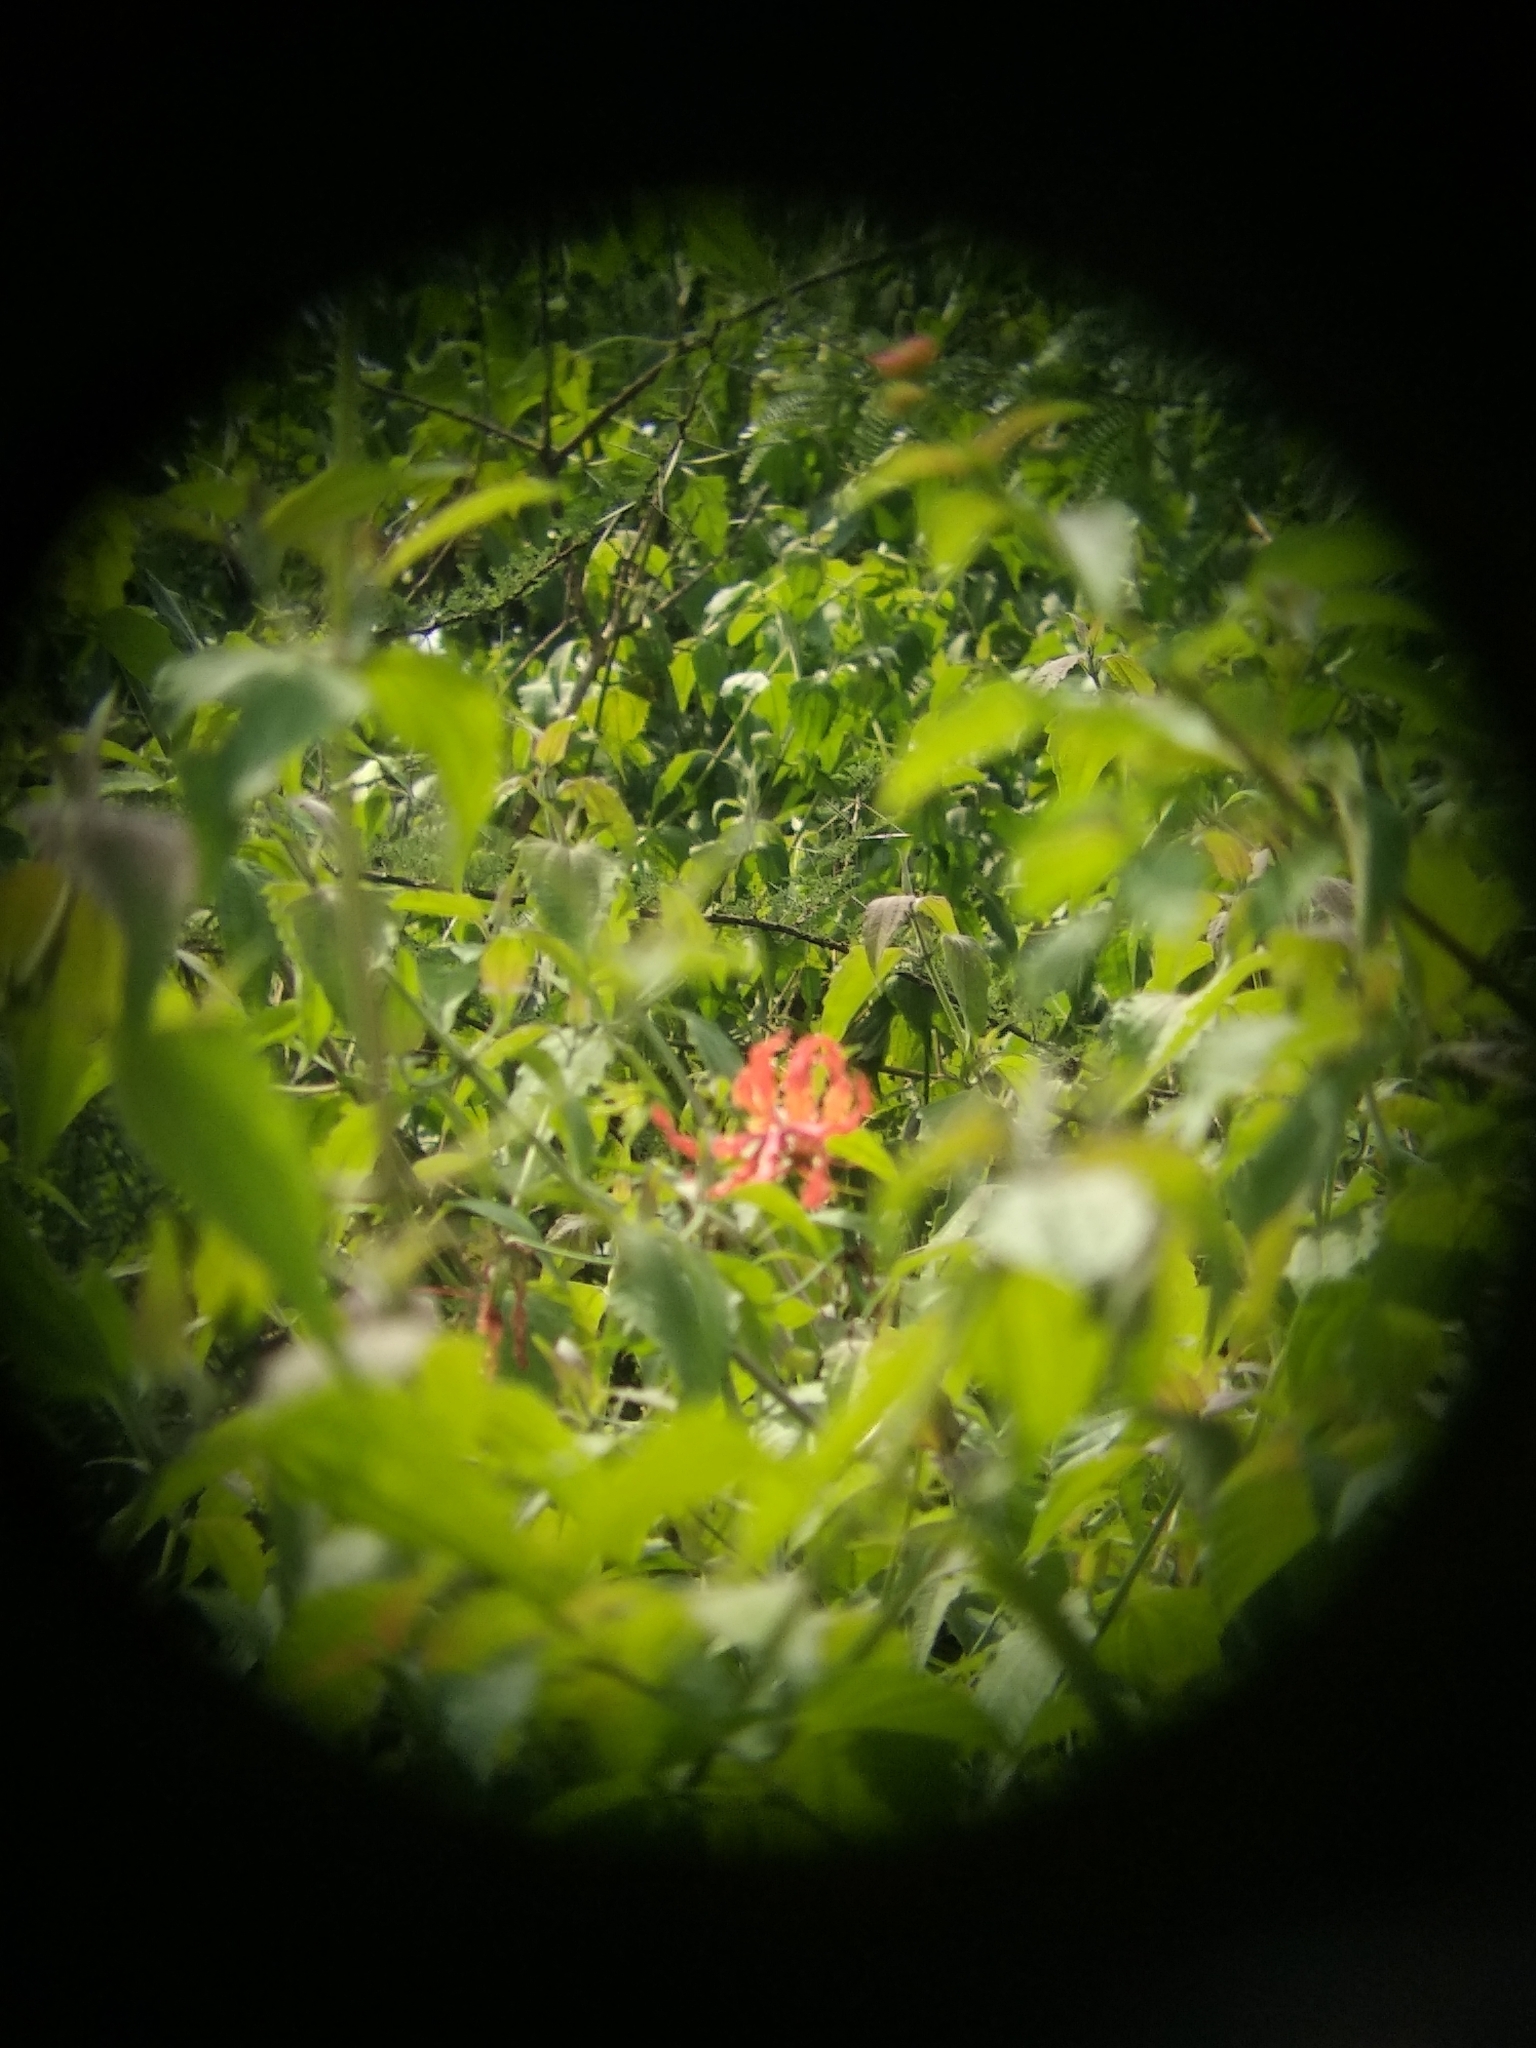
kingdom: Plantae
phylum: Tracheophyta
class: Liliopsida
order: Liliales
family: Colchicaceae
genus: Gloriosa
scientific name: Gloriosa superba
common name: Flame lily
